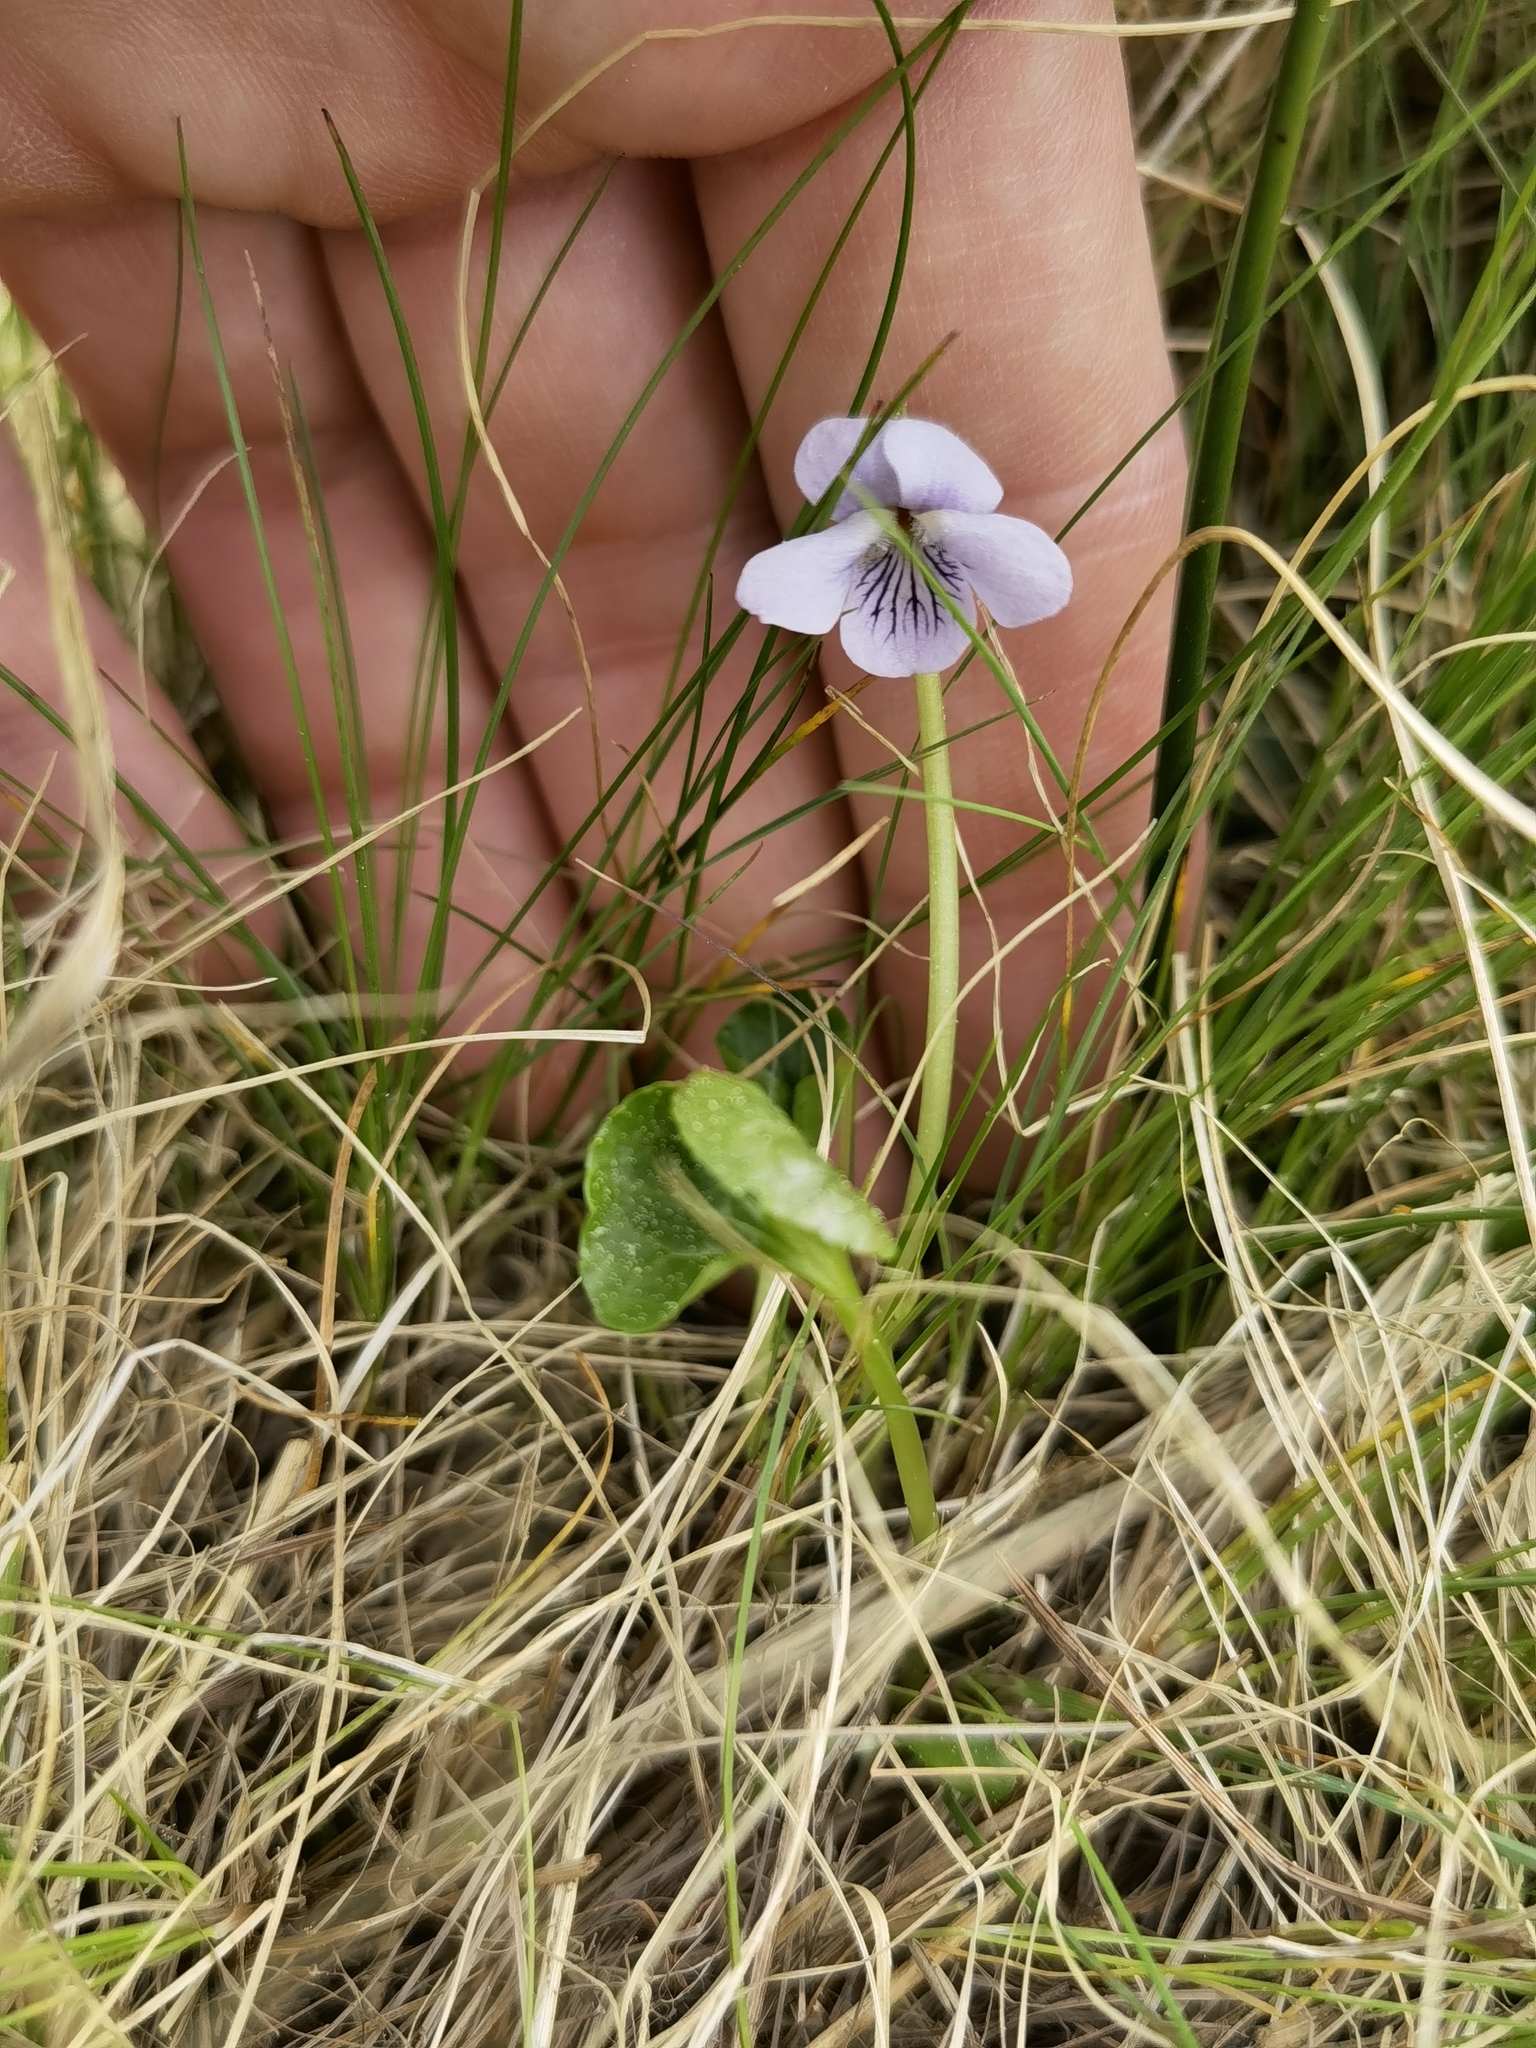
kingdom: Plantae
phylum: Tracheophyta
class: Magnoliopsida
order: Malpighiales
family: Violaceae
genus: Viola
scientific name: Viola palustris
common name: Marsh violet
